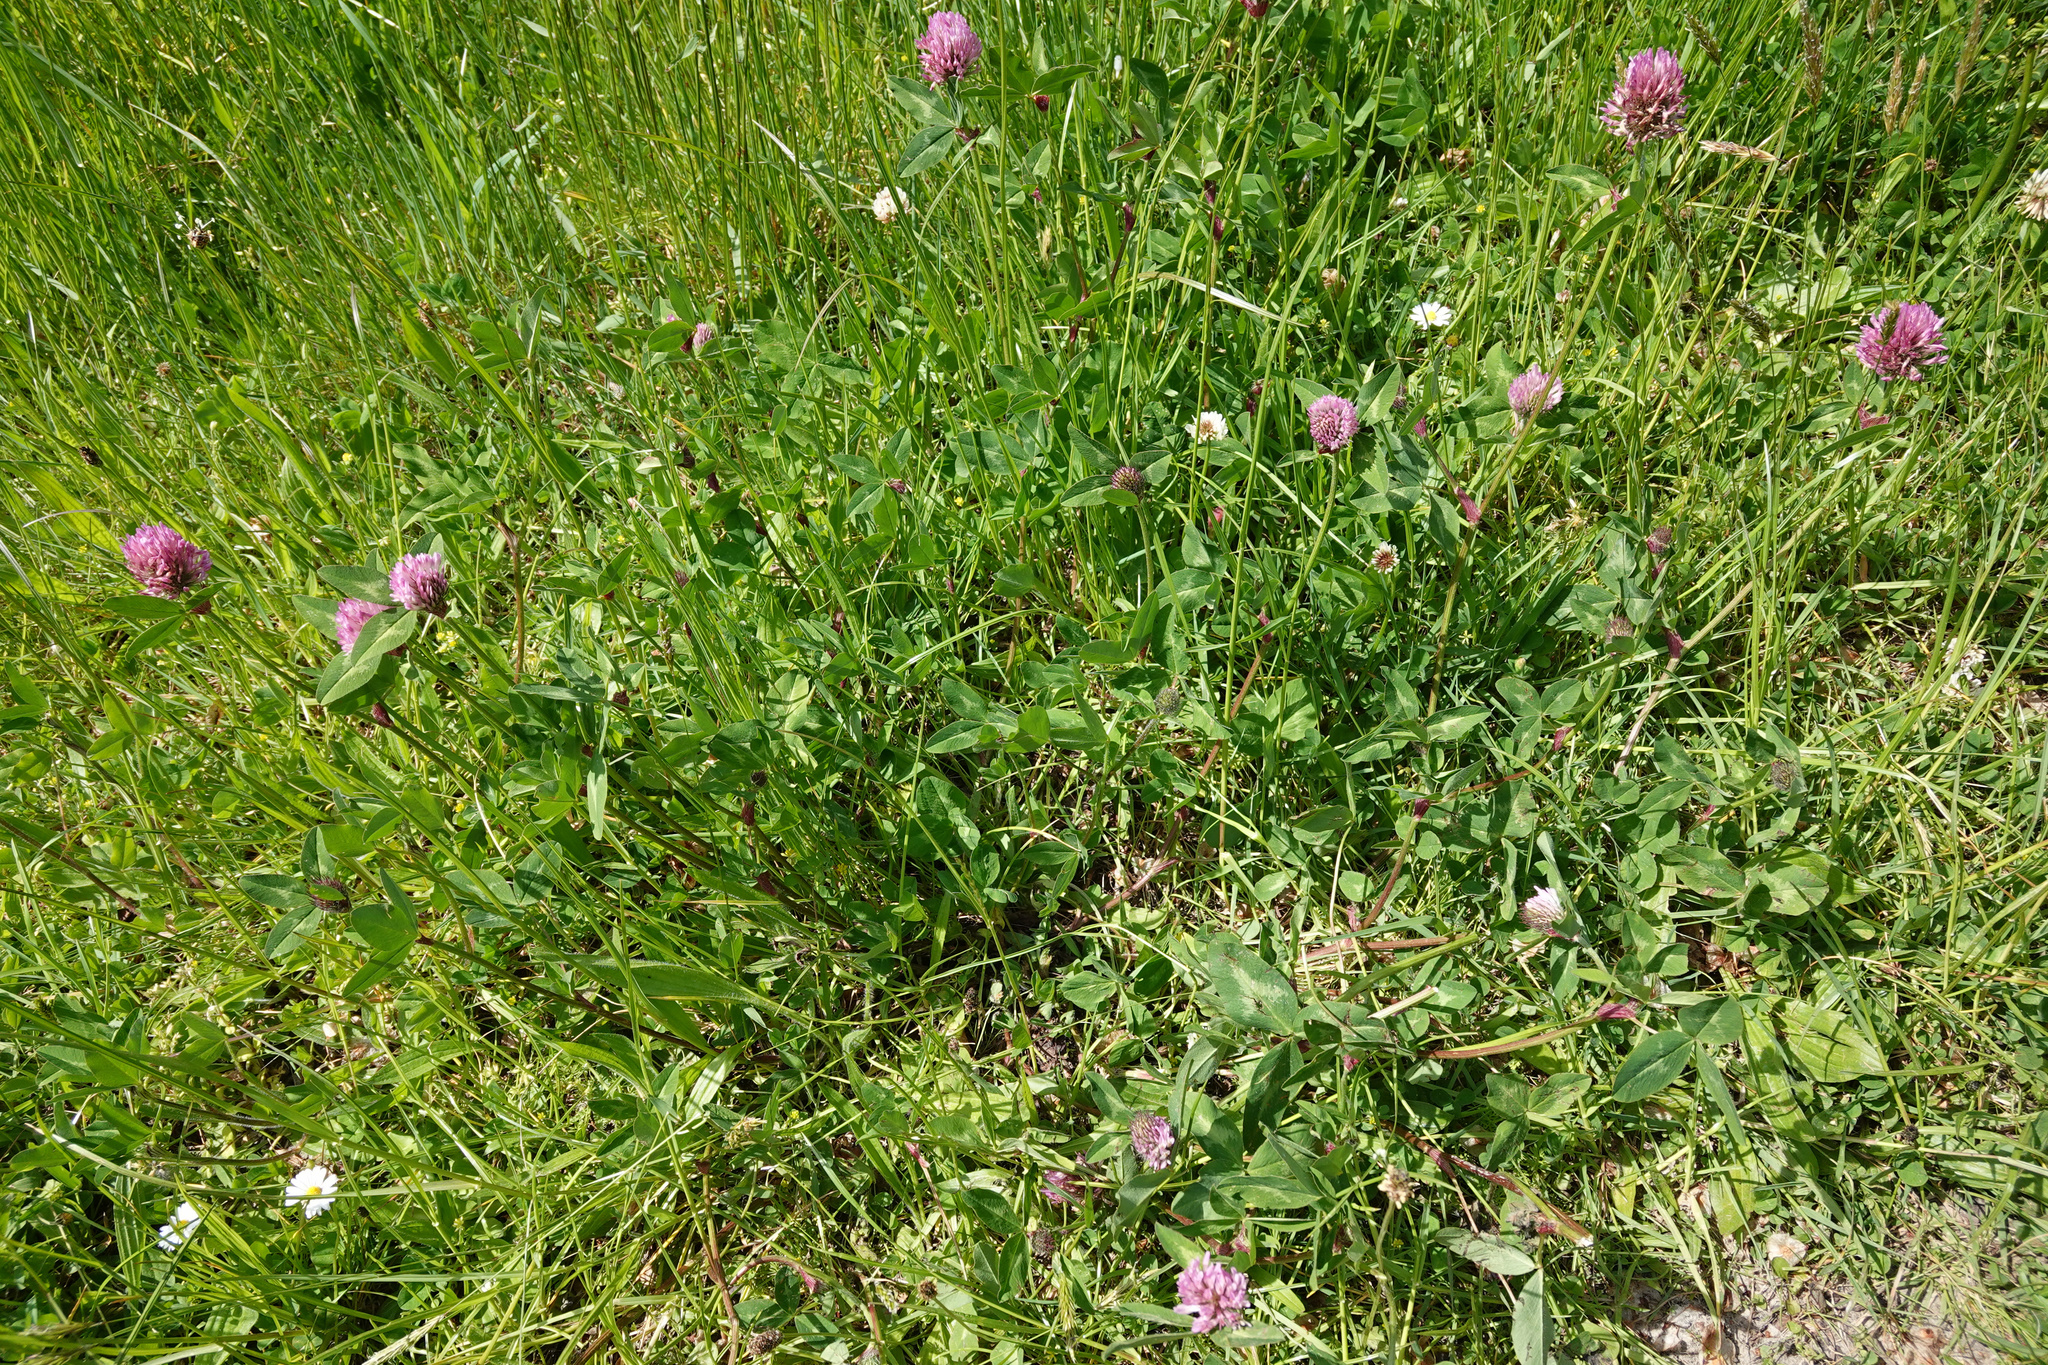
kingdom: Plantae
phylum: Tracheophyta
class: Magnoliopsida
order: Fabales
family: Fabaceae
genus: Trifolium
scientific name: Trifolium pratense
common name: Red clover
